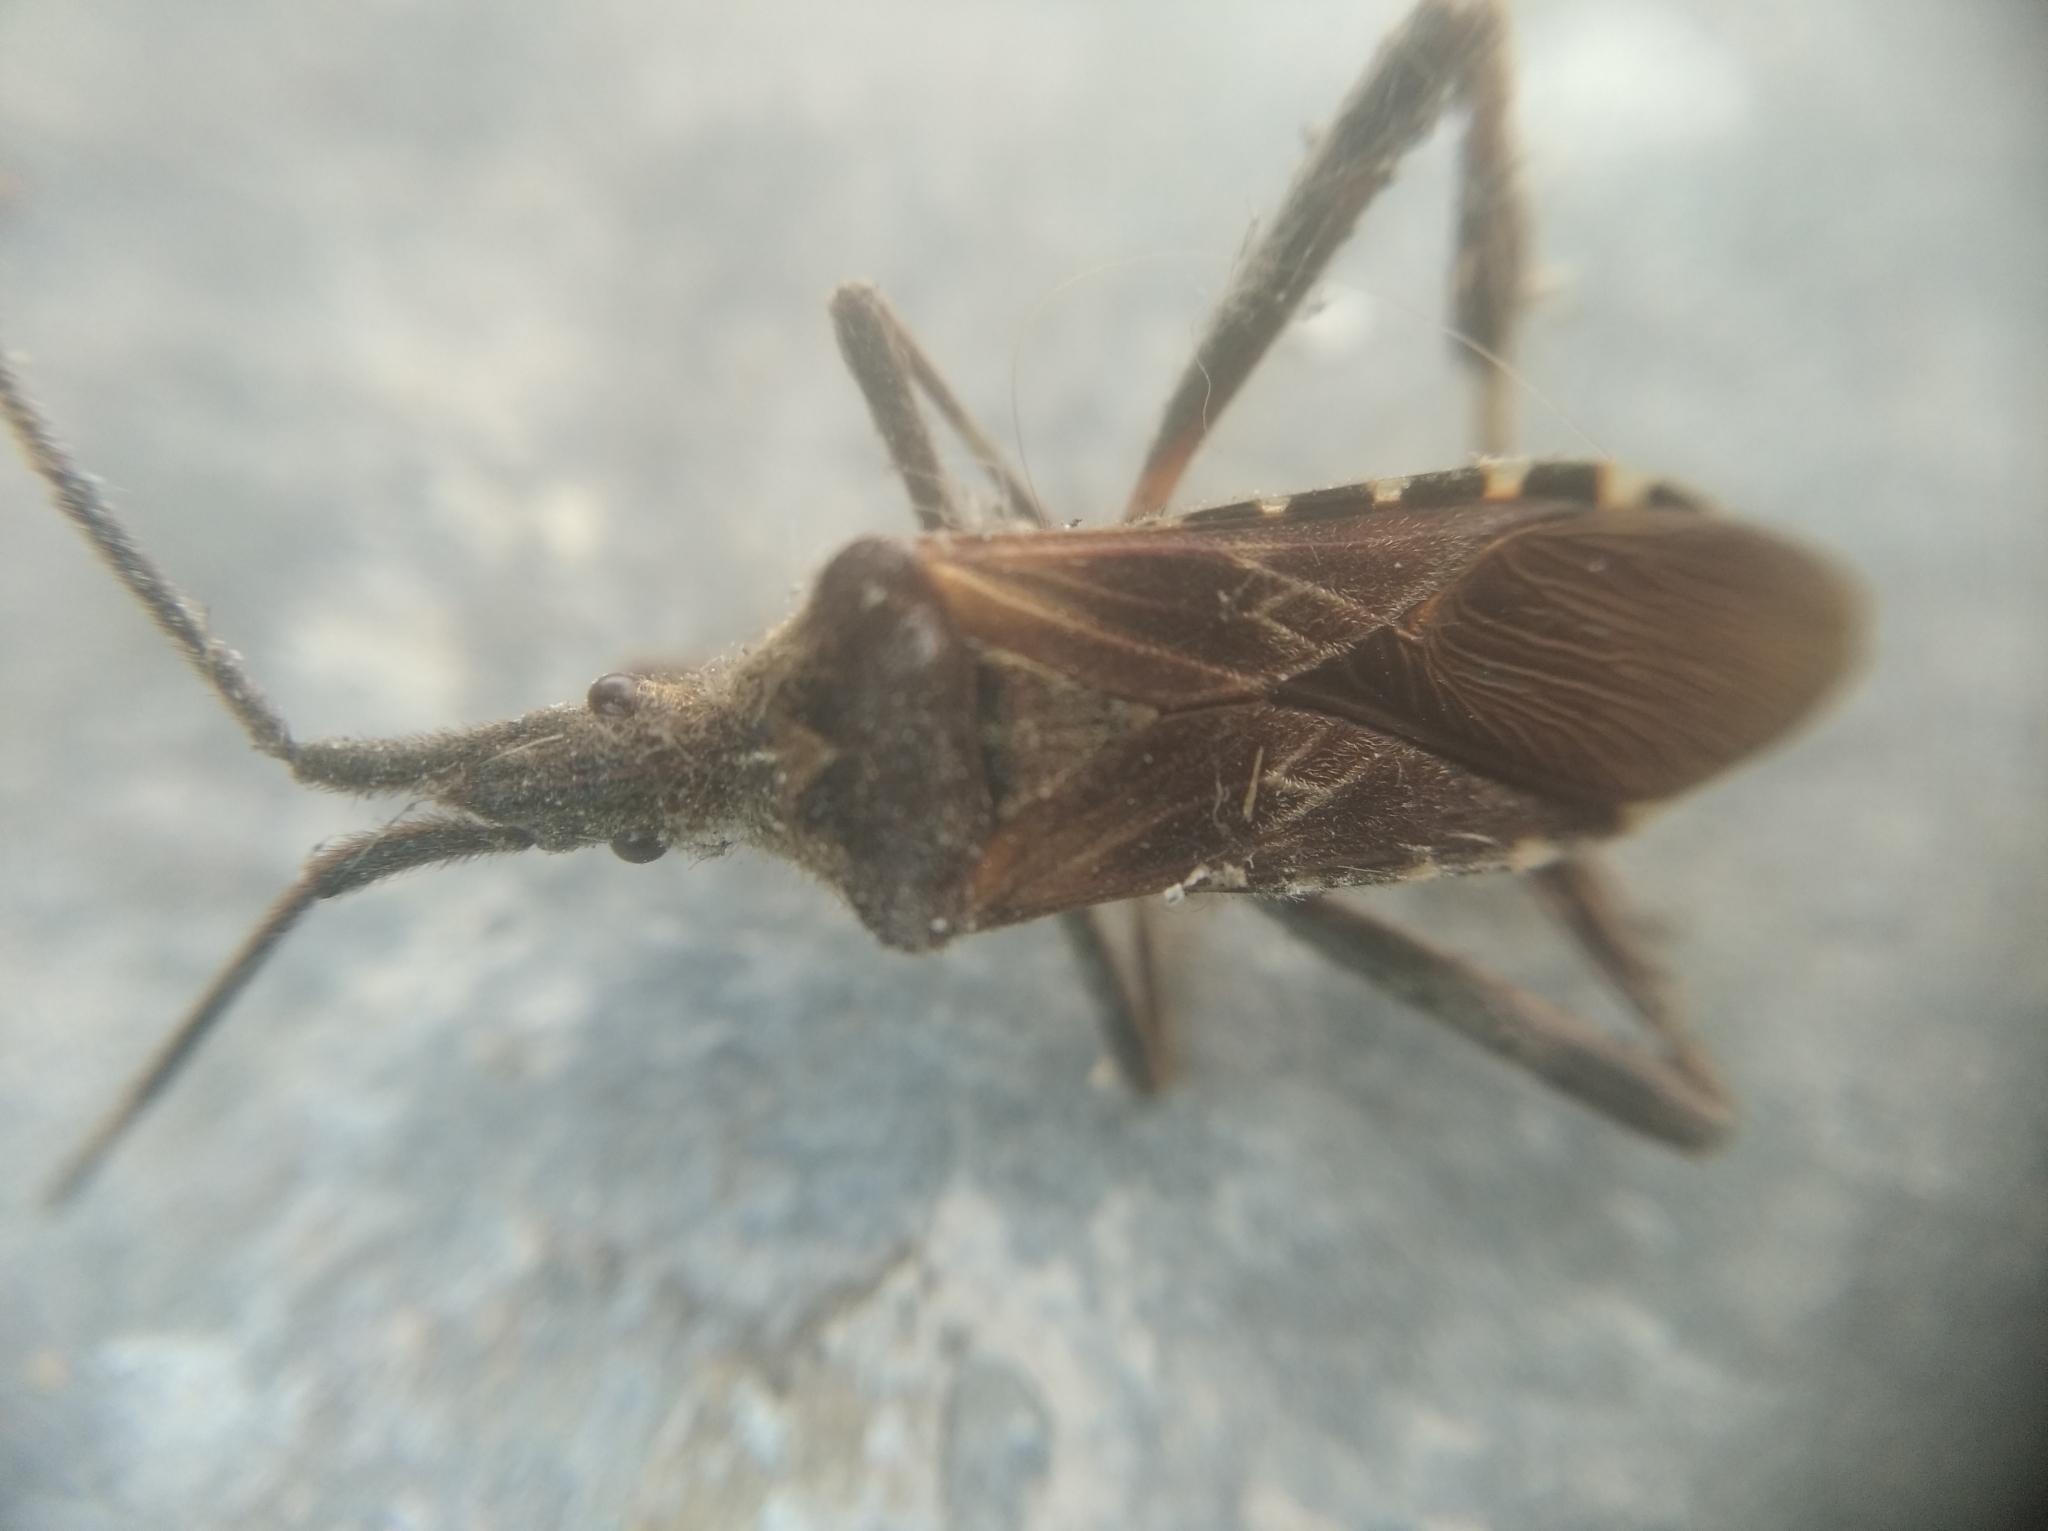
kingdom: Animalia
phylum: Arthropoda
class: Insecta
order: Hemiptera
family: Coreidae
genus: Leptoglossus
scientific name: Leptoglossus occidentalis
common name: Western conifer-seed bug
